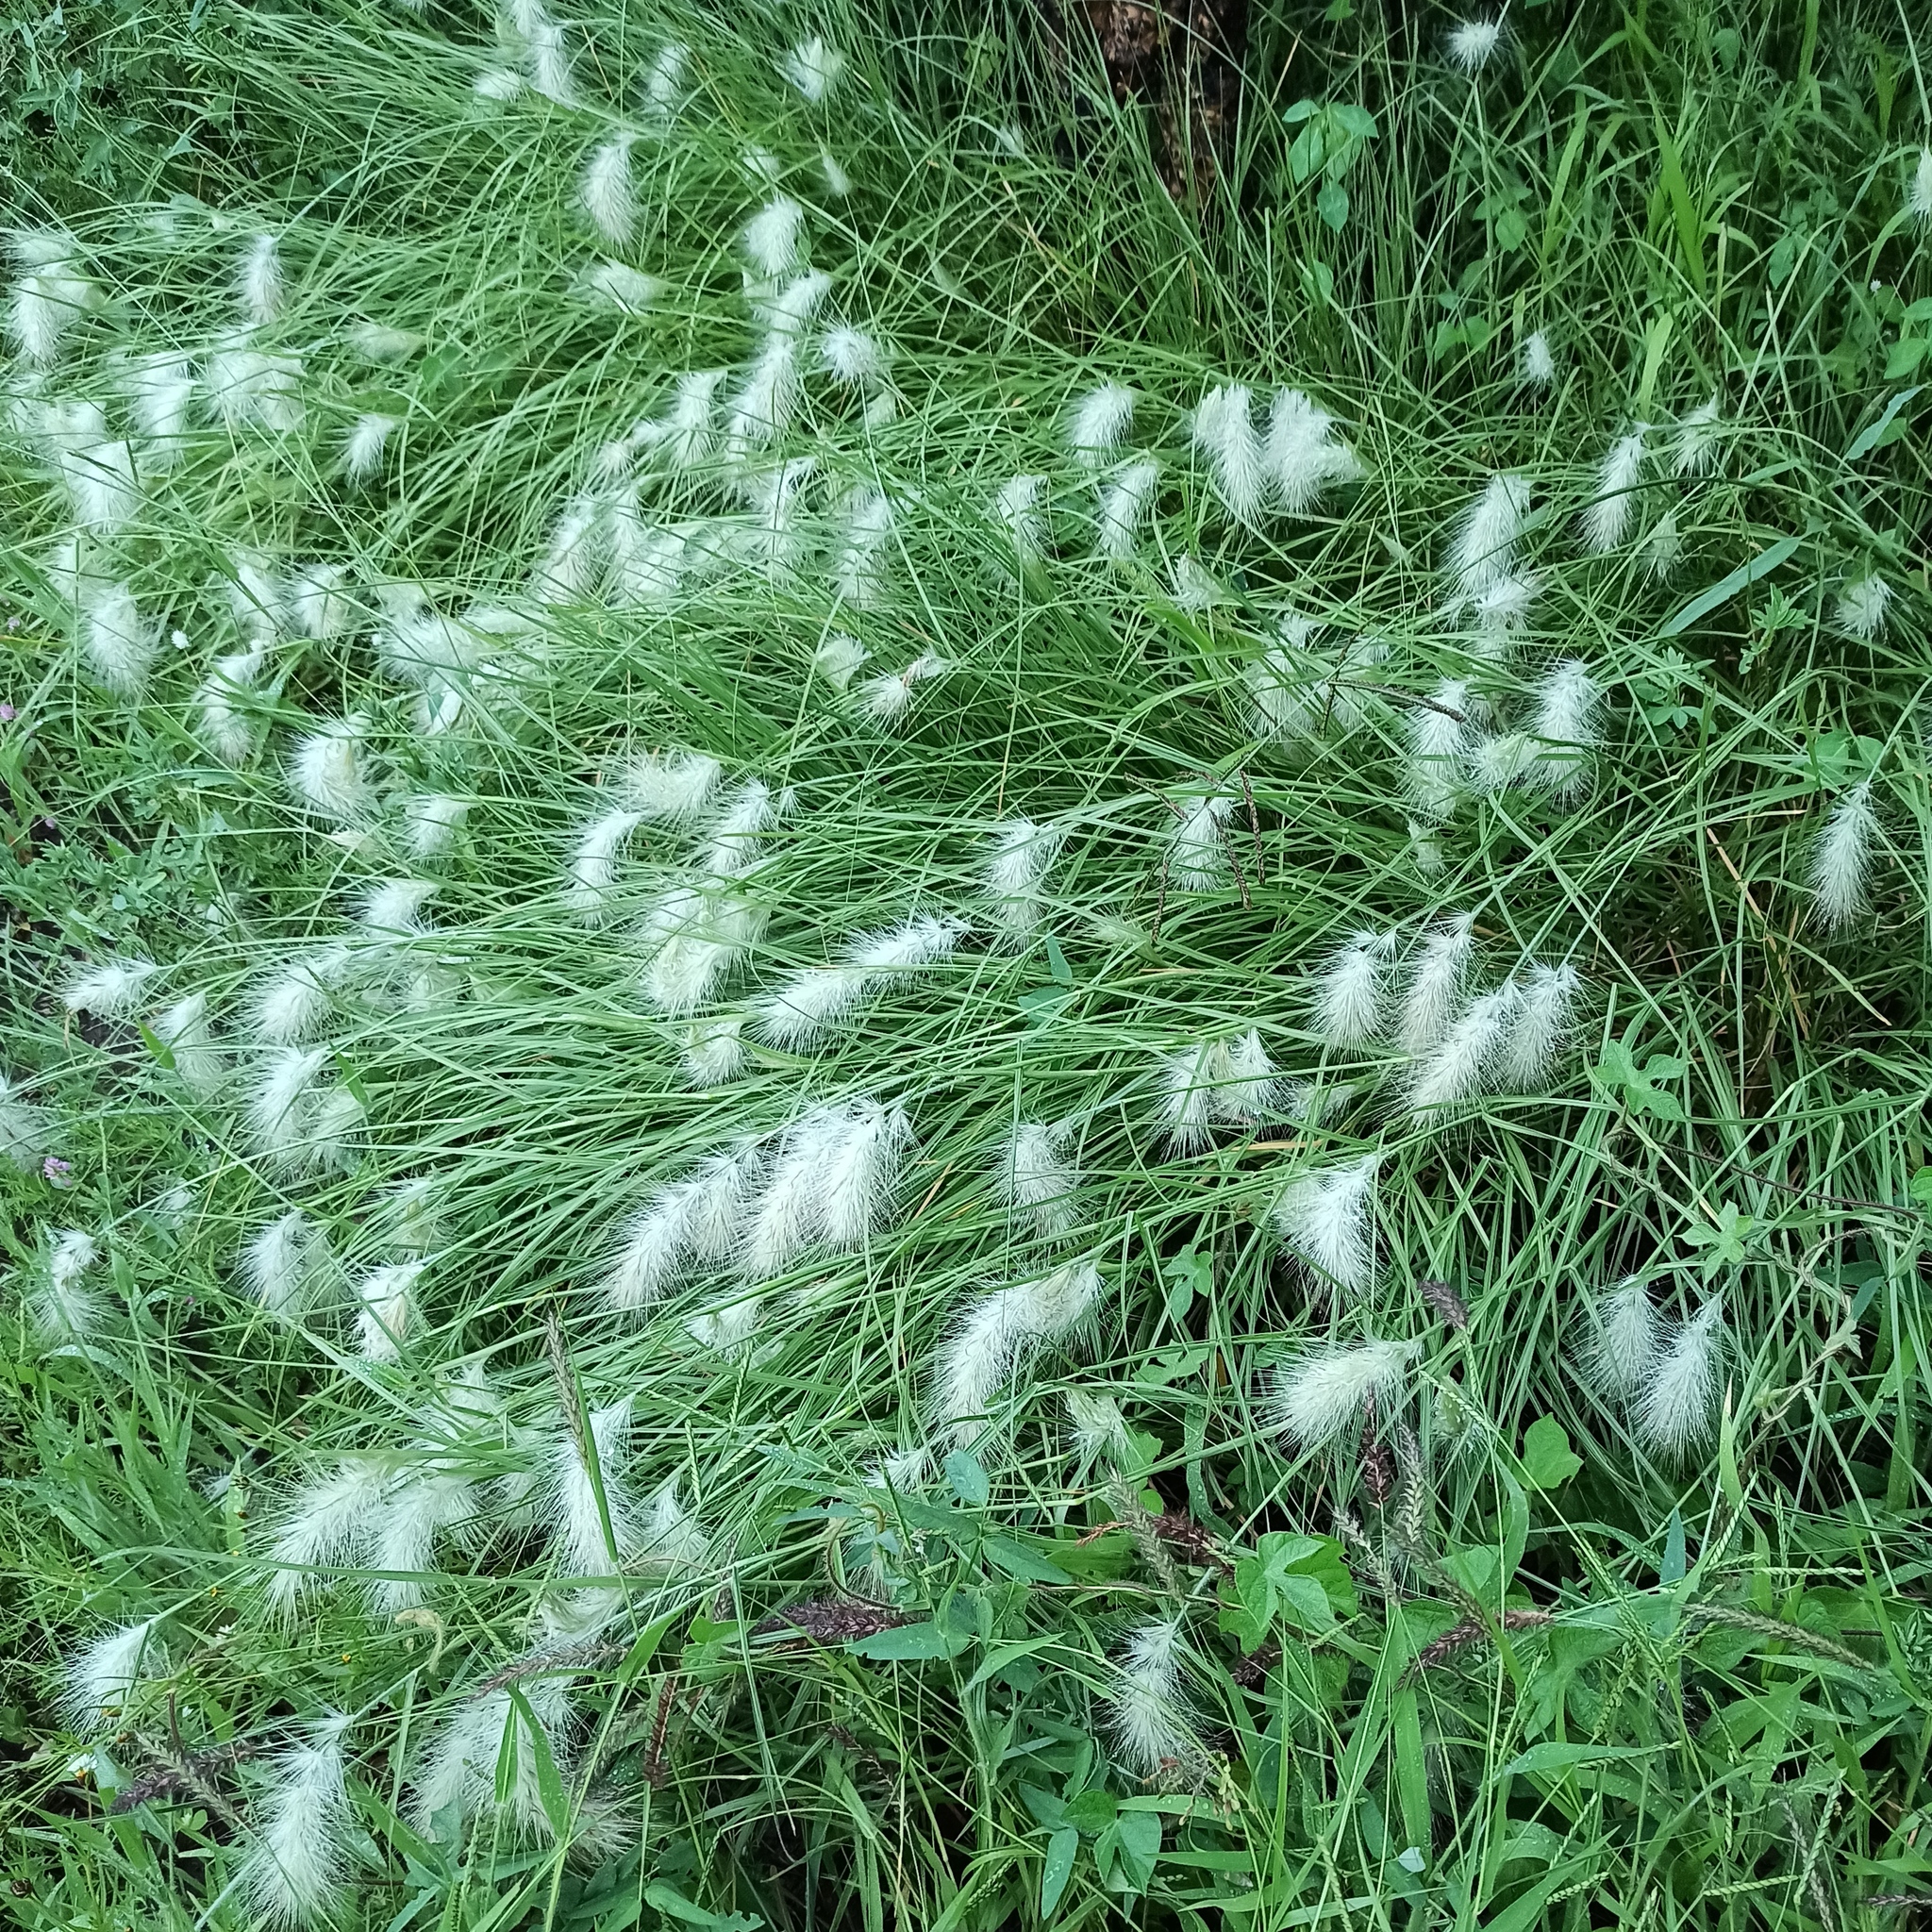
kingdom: Plantae
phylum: Tracheophyta
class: Liliopsida
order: Poales
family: Poaceae
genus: Cenchrus
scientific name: Cenchrus longisetus
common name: Feathertop
